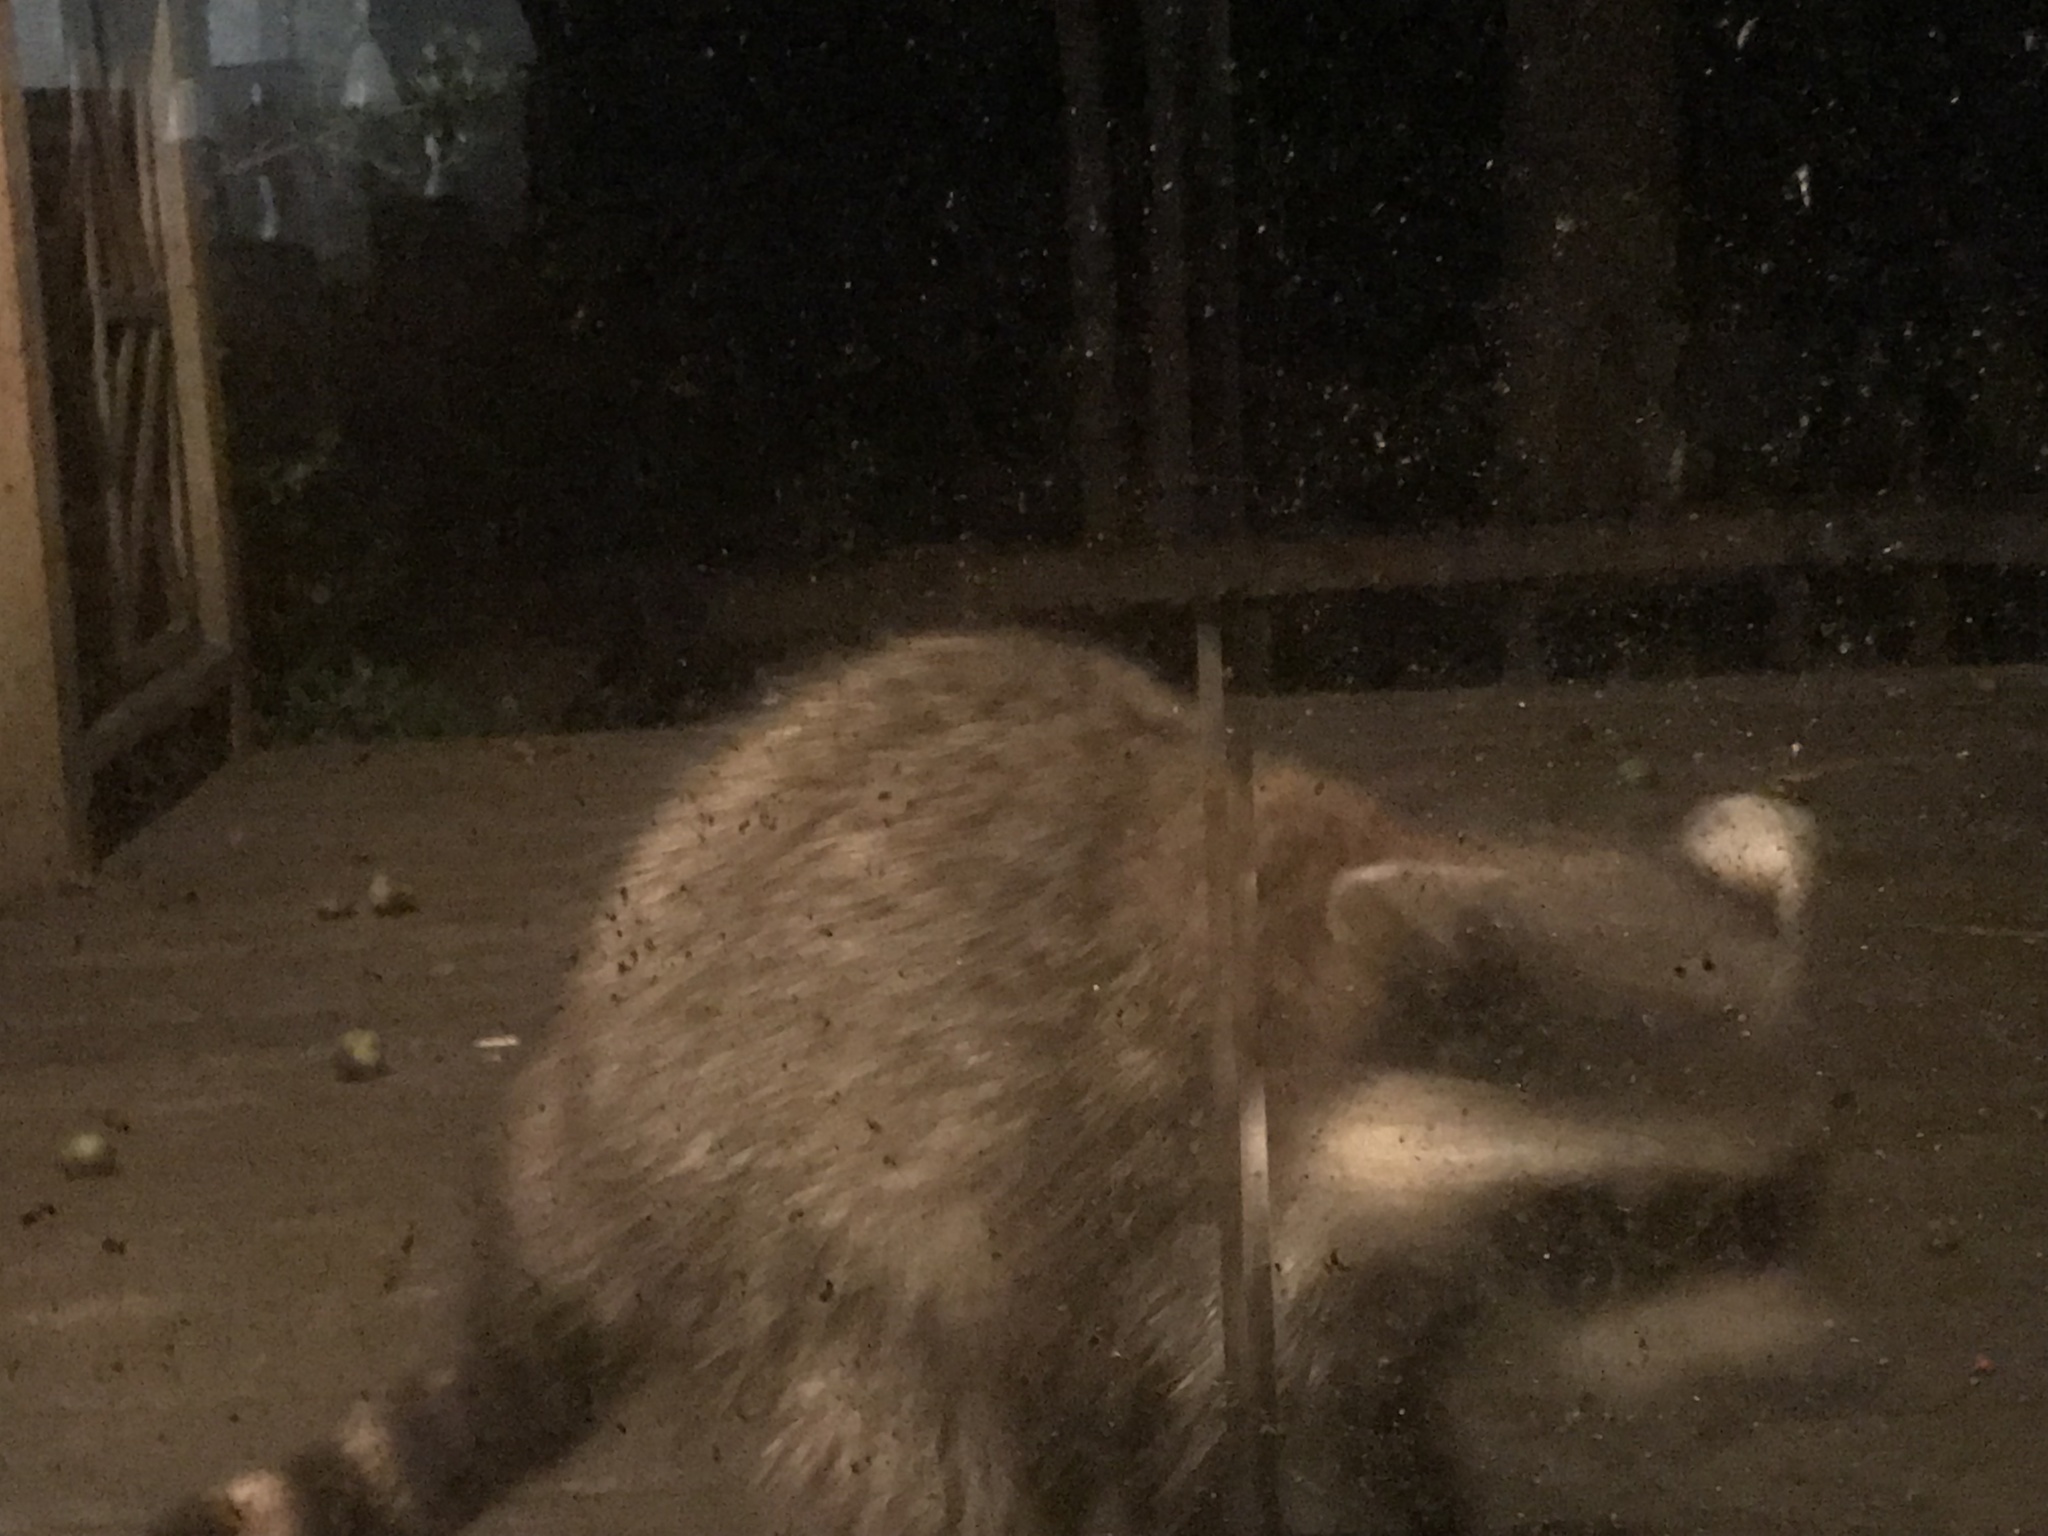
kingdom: Animalia
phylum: Chordata
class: Mammalia
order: Carnivora
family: Procyonidae
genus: Procyon
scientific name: Procyon lotor
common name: Raccoon
